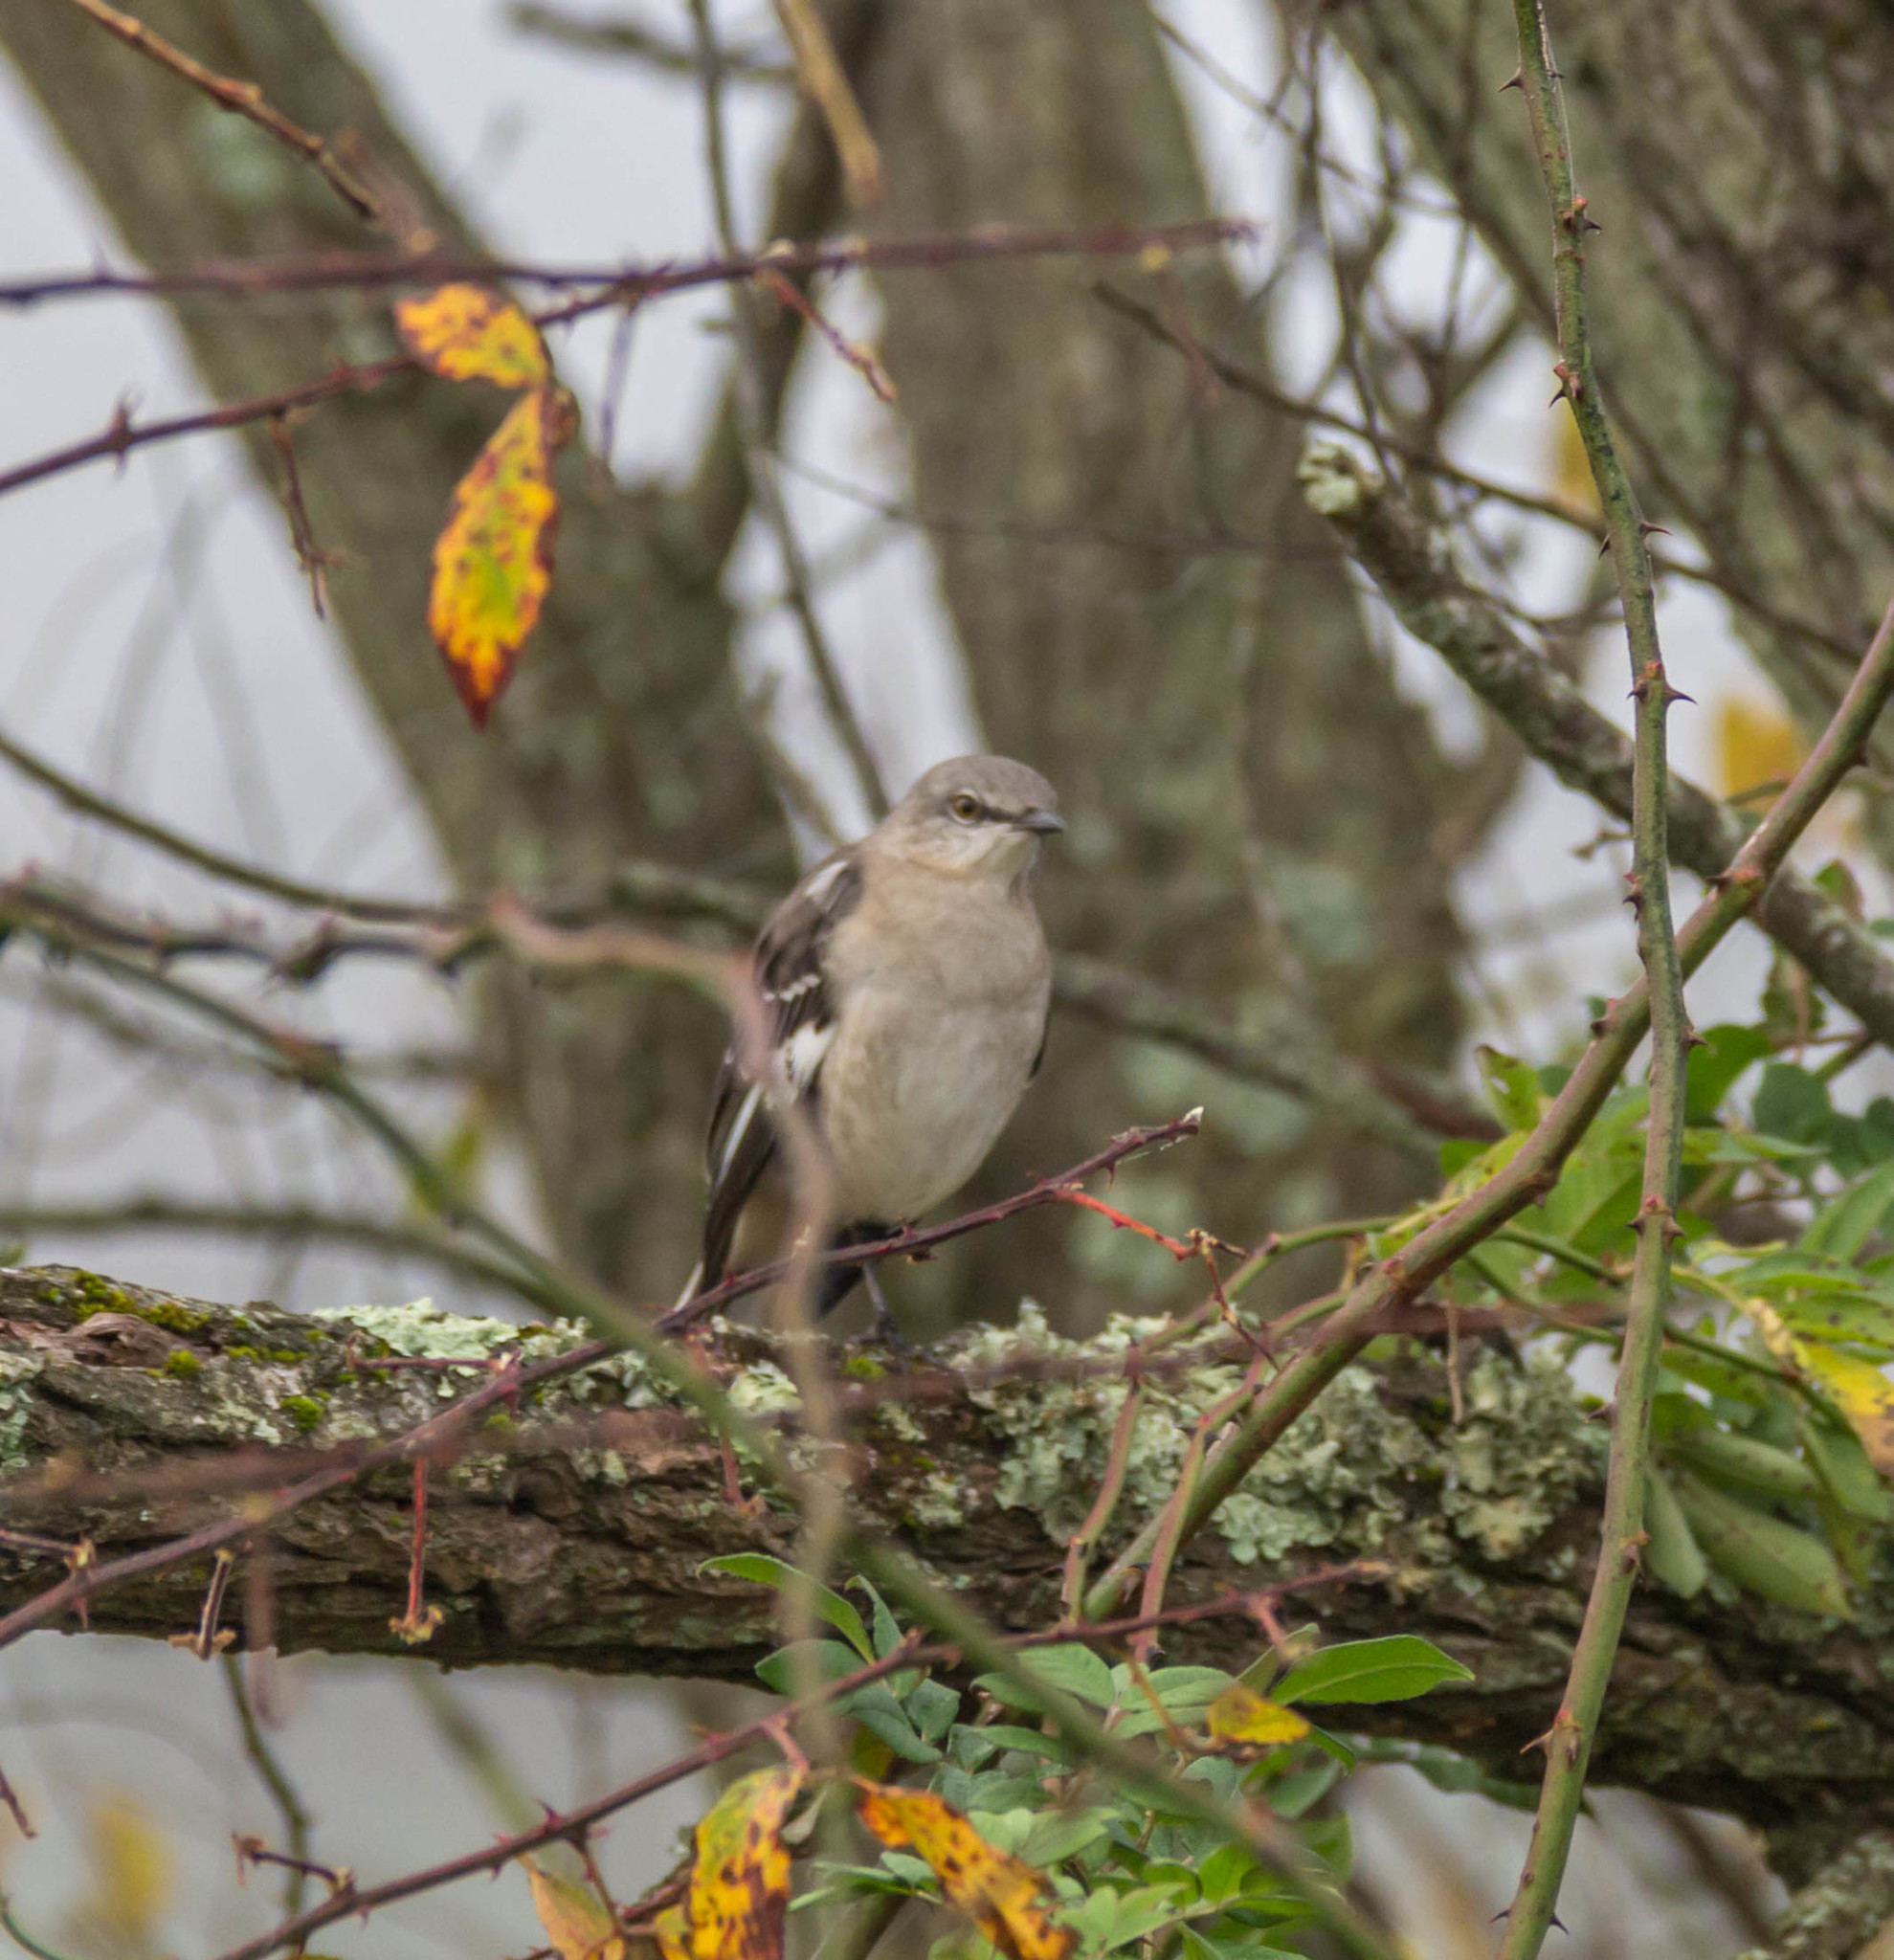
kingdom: Animalia
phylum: Chordata
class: Aves
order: Passeriformes
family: Mimidae
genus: Mimus
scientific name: Mimus polyglottos
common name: Northern mockingbird
